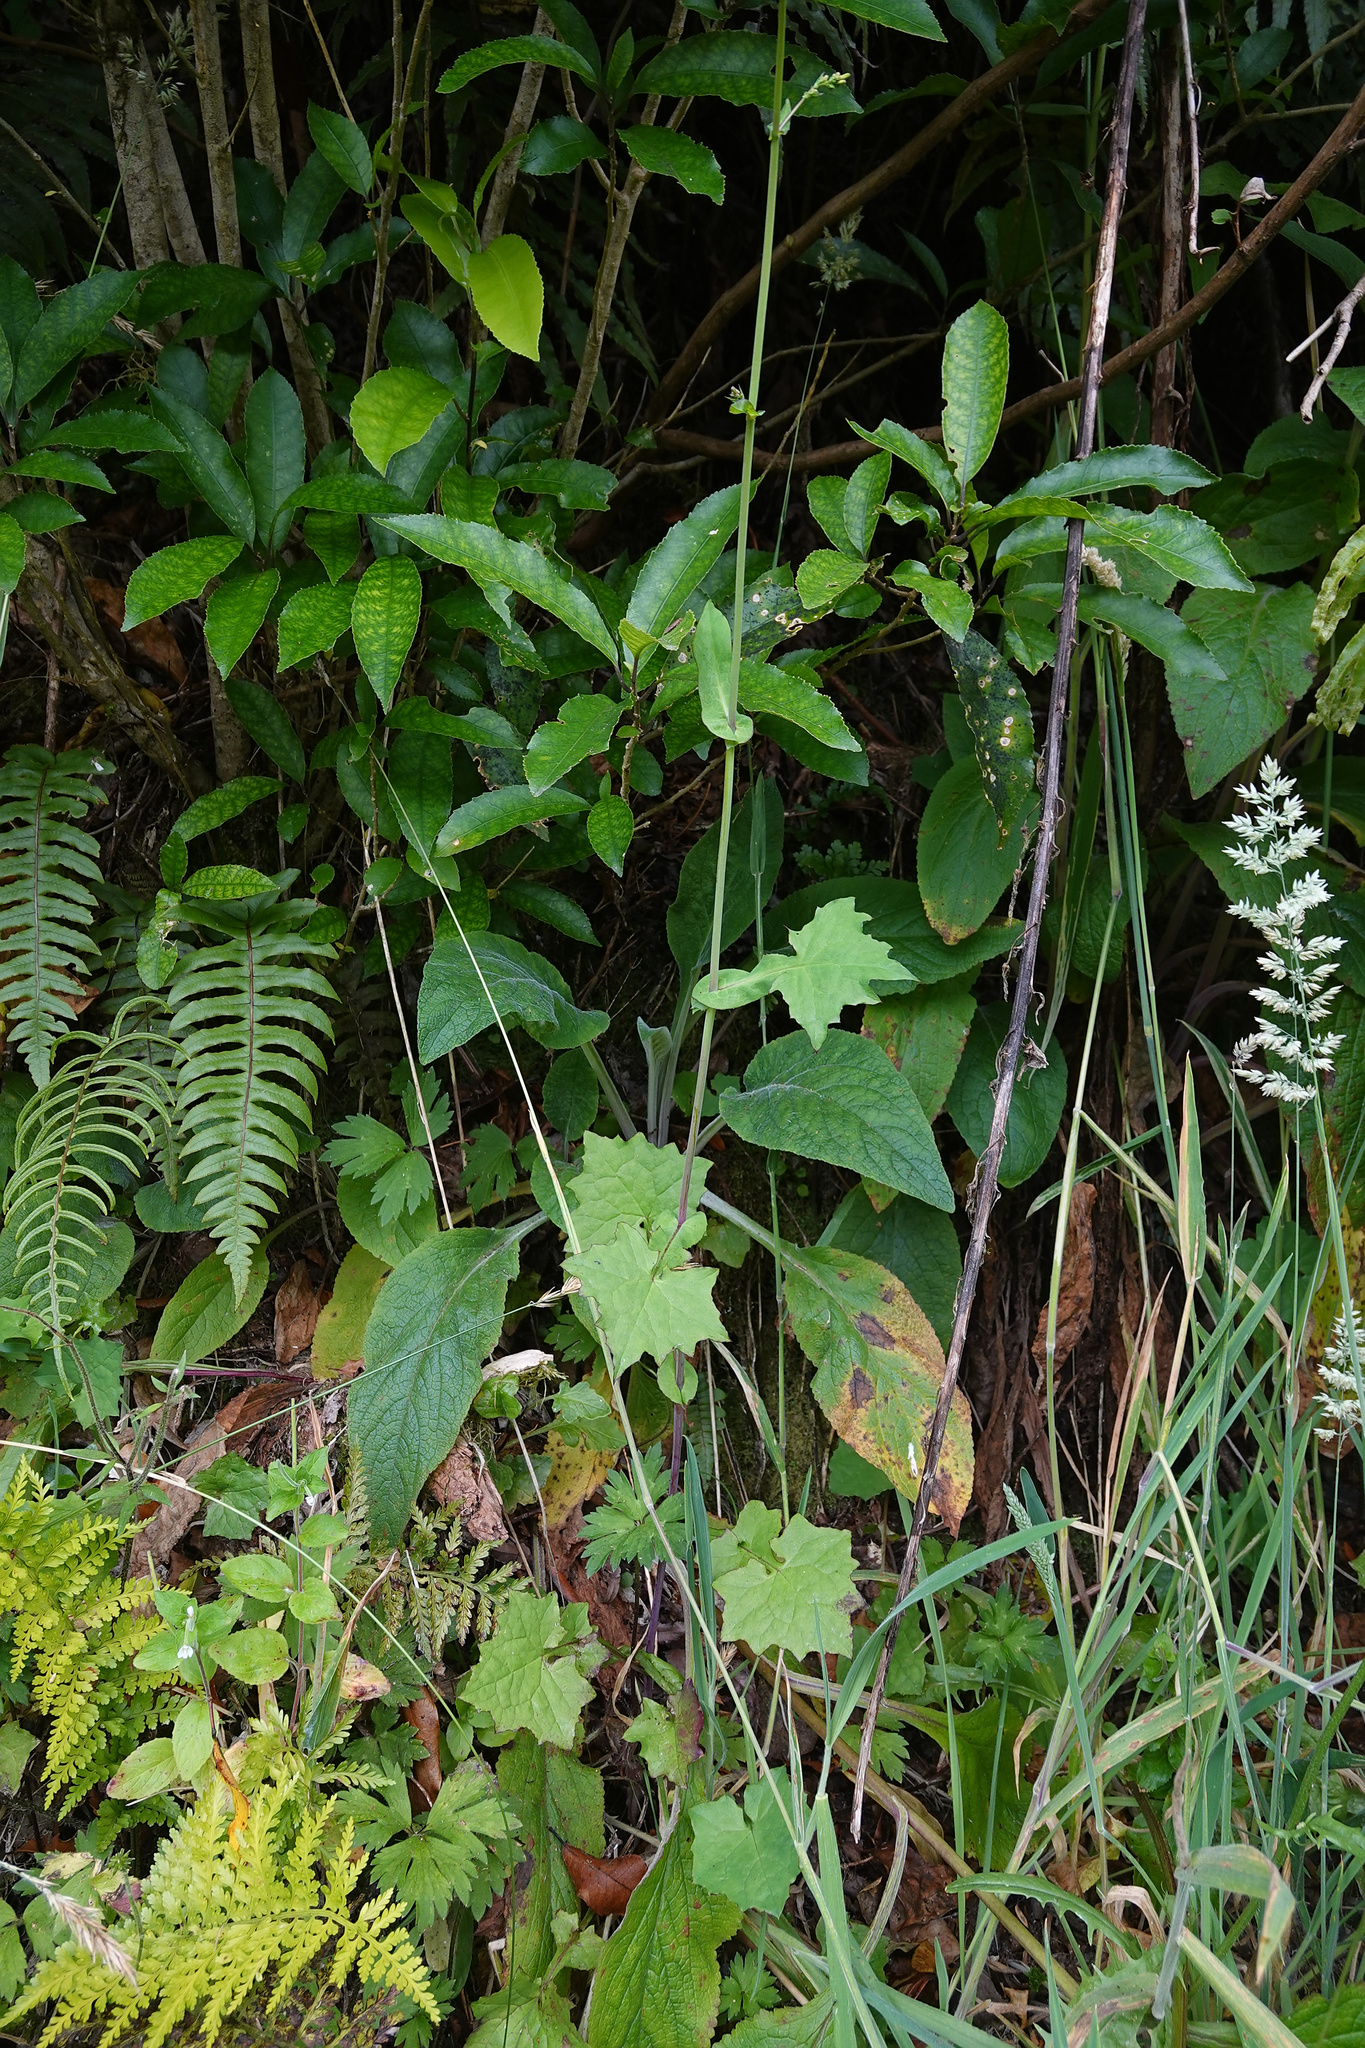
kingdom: Plantae
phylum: Tracheophyta
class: Magnoliopsida
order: Asterales
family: Asteraceae
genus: Mycelis
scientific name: Mycelis muralis
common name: Wall lettuce
